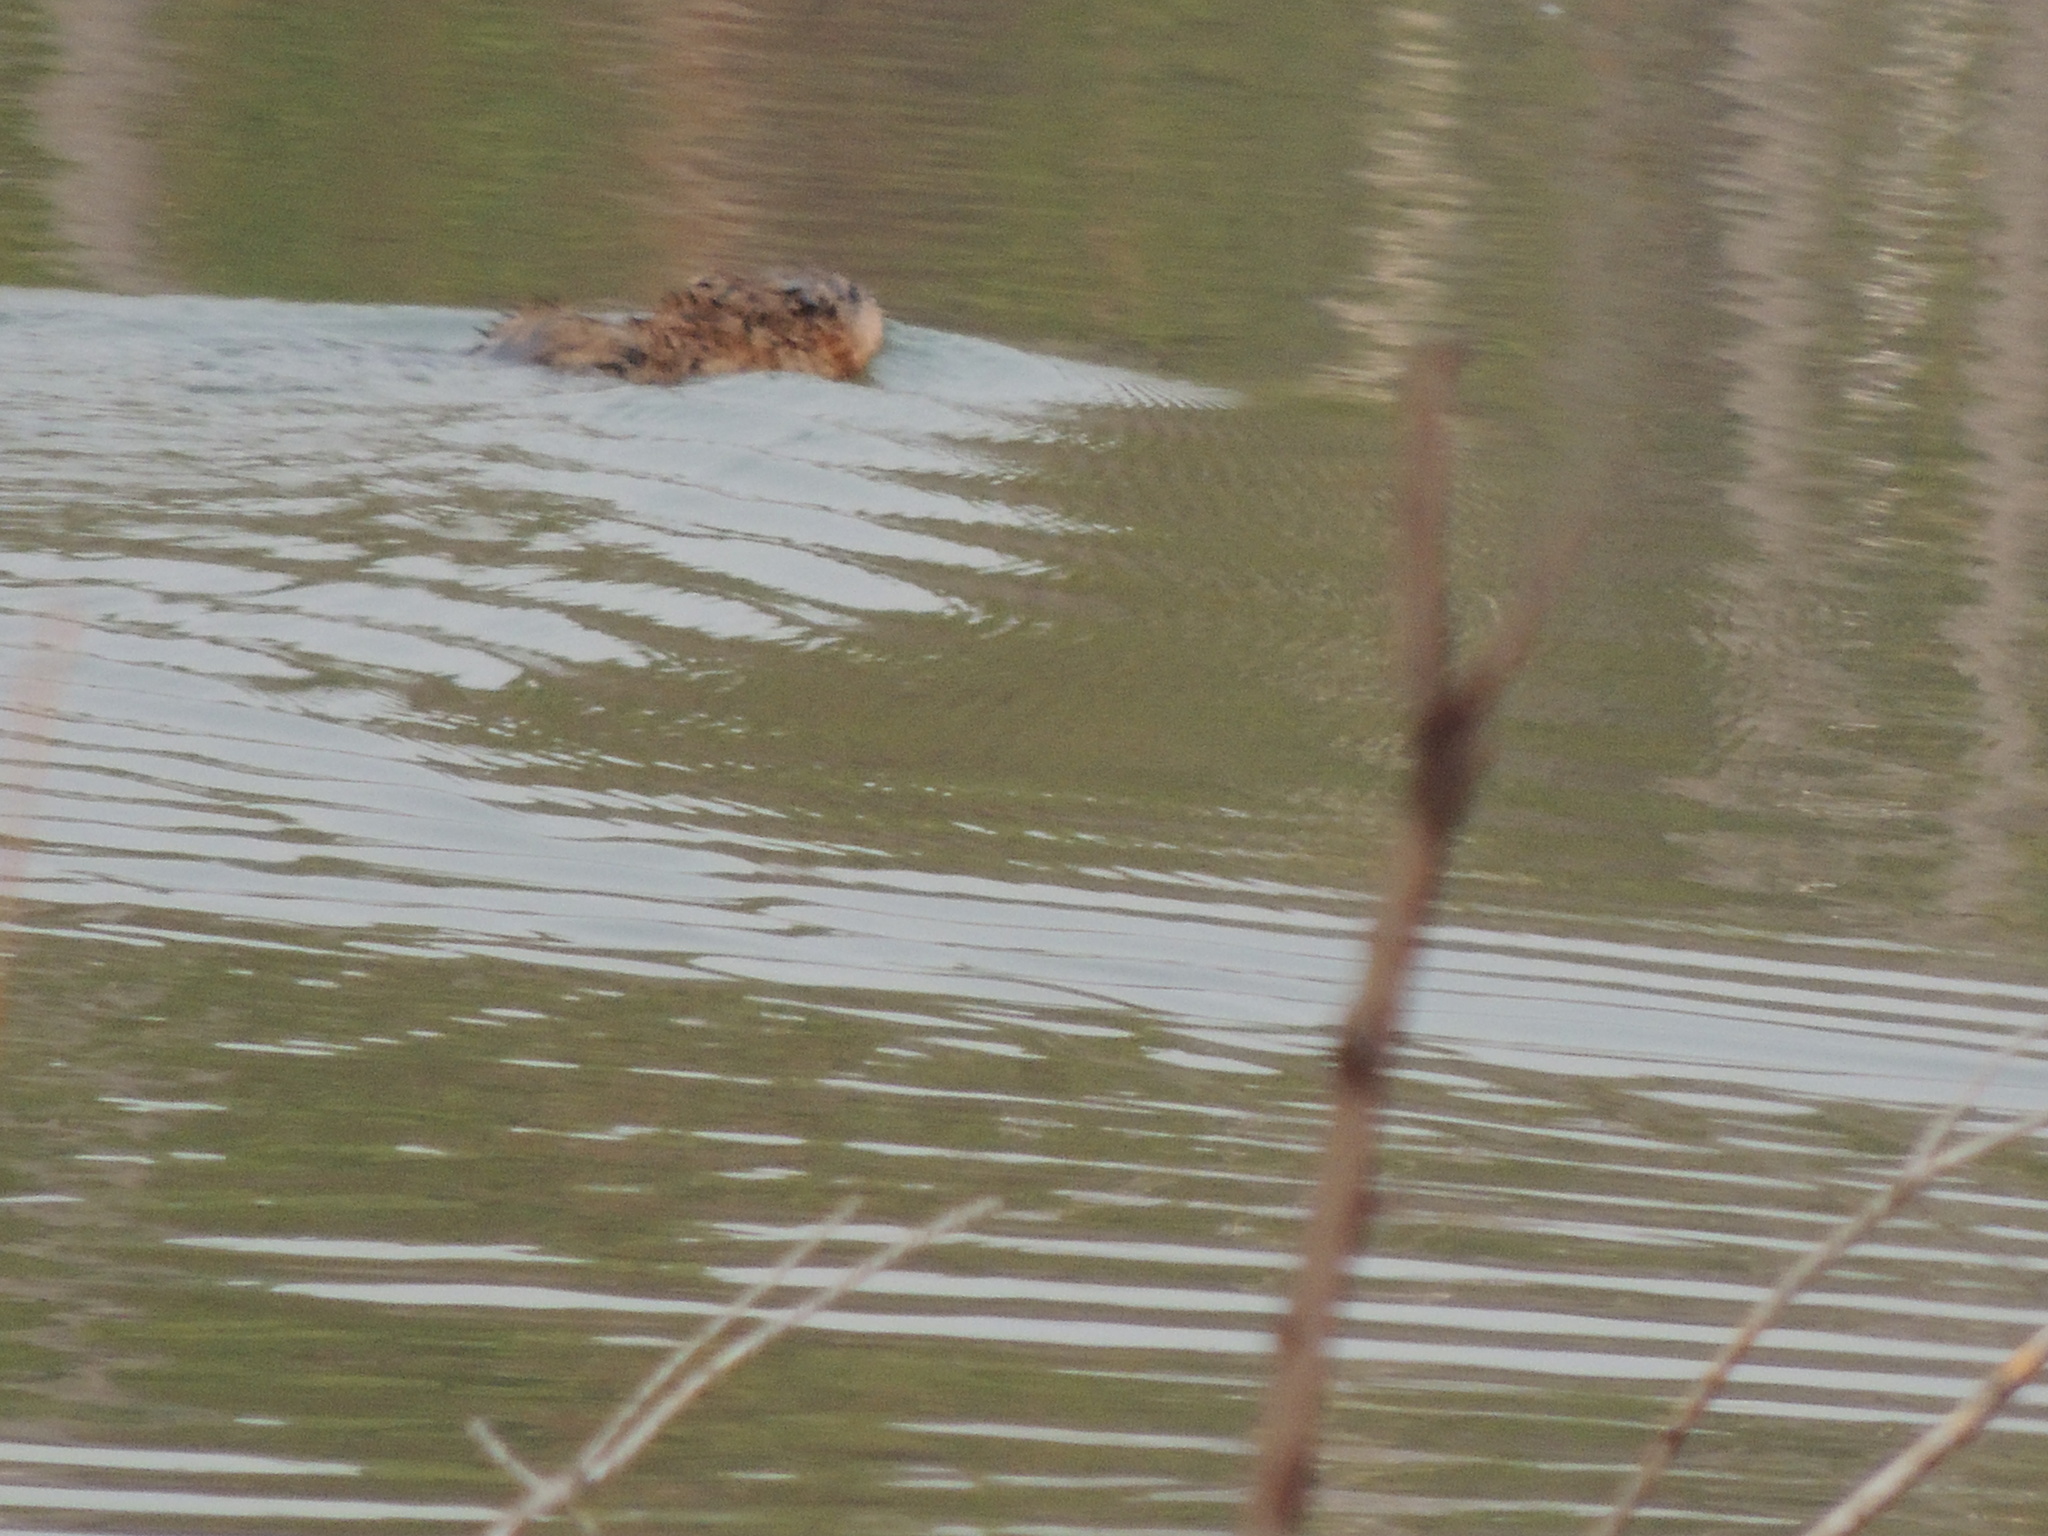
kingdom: Animalia
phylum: Chordata
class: Mammalia
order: Rodentia
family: Cricetidae
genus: Ondatra
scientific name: Ondatra zibethicus
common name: Muskrat
